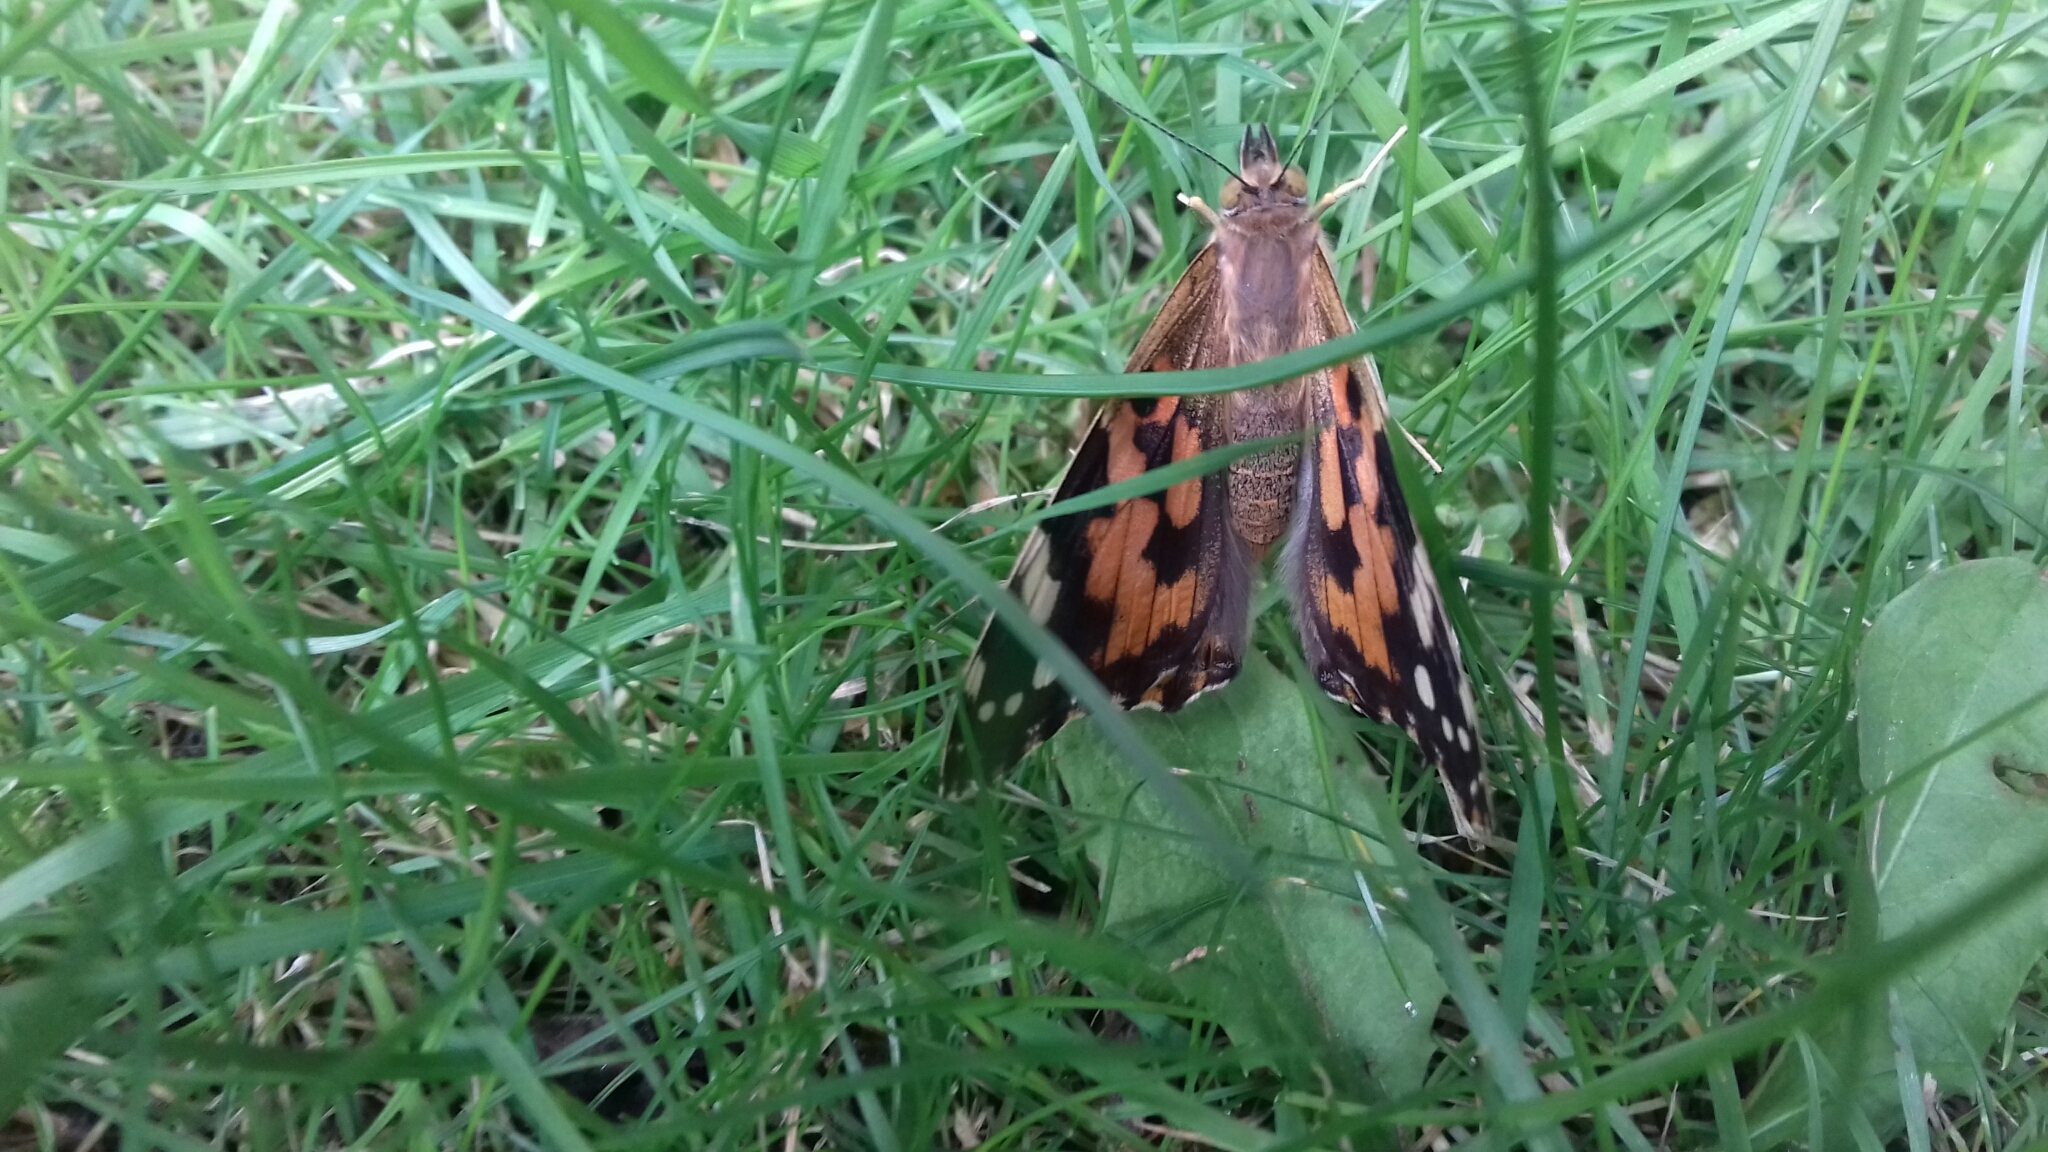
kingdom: Animalia
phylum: Arthropoda
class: Insecta
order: Lepidoptera
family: Nymphalidae
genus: Vanessa
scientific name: Vanessa cardui
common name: Painted lady
